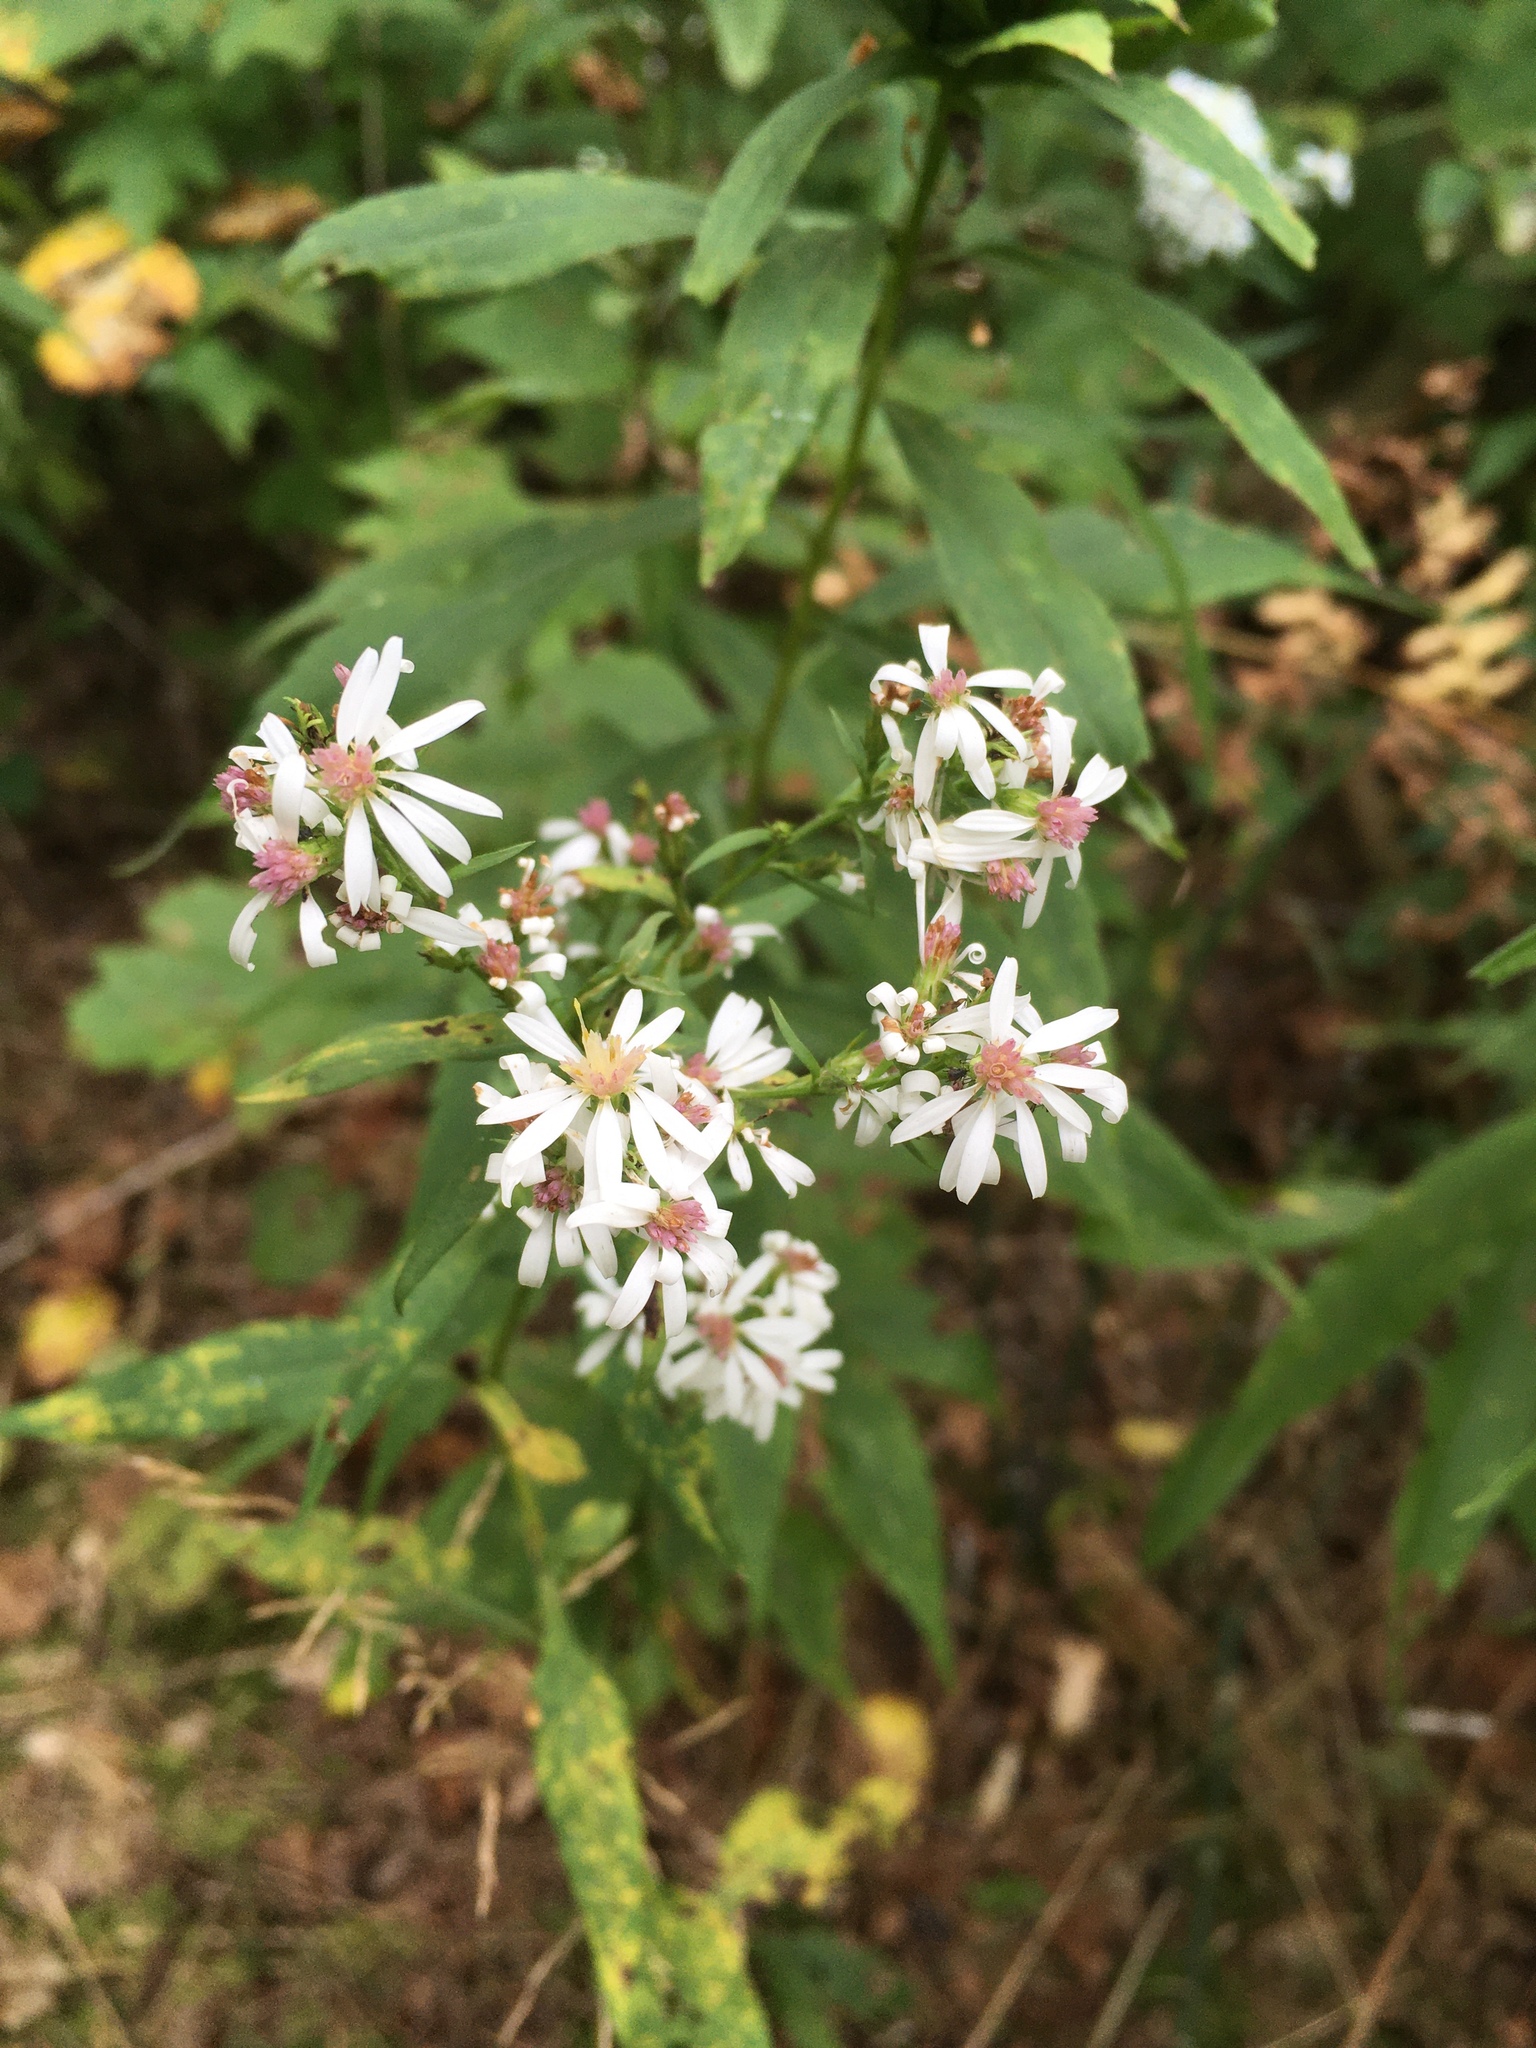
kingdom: Plantae
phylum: Tracheophyta
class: Magnoliopsida
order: Asterales
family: Asteraceae
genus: Symphyotrichum
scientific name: Symphyotrichum urophyllum
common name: Arrow-leaved aster
